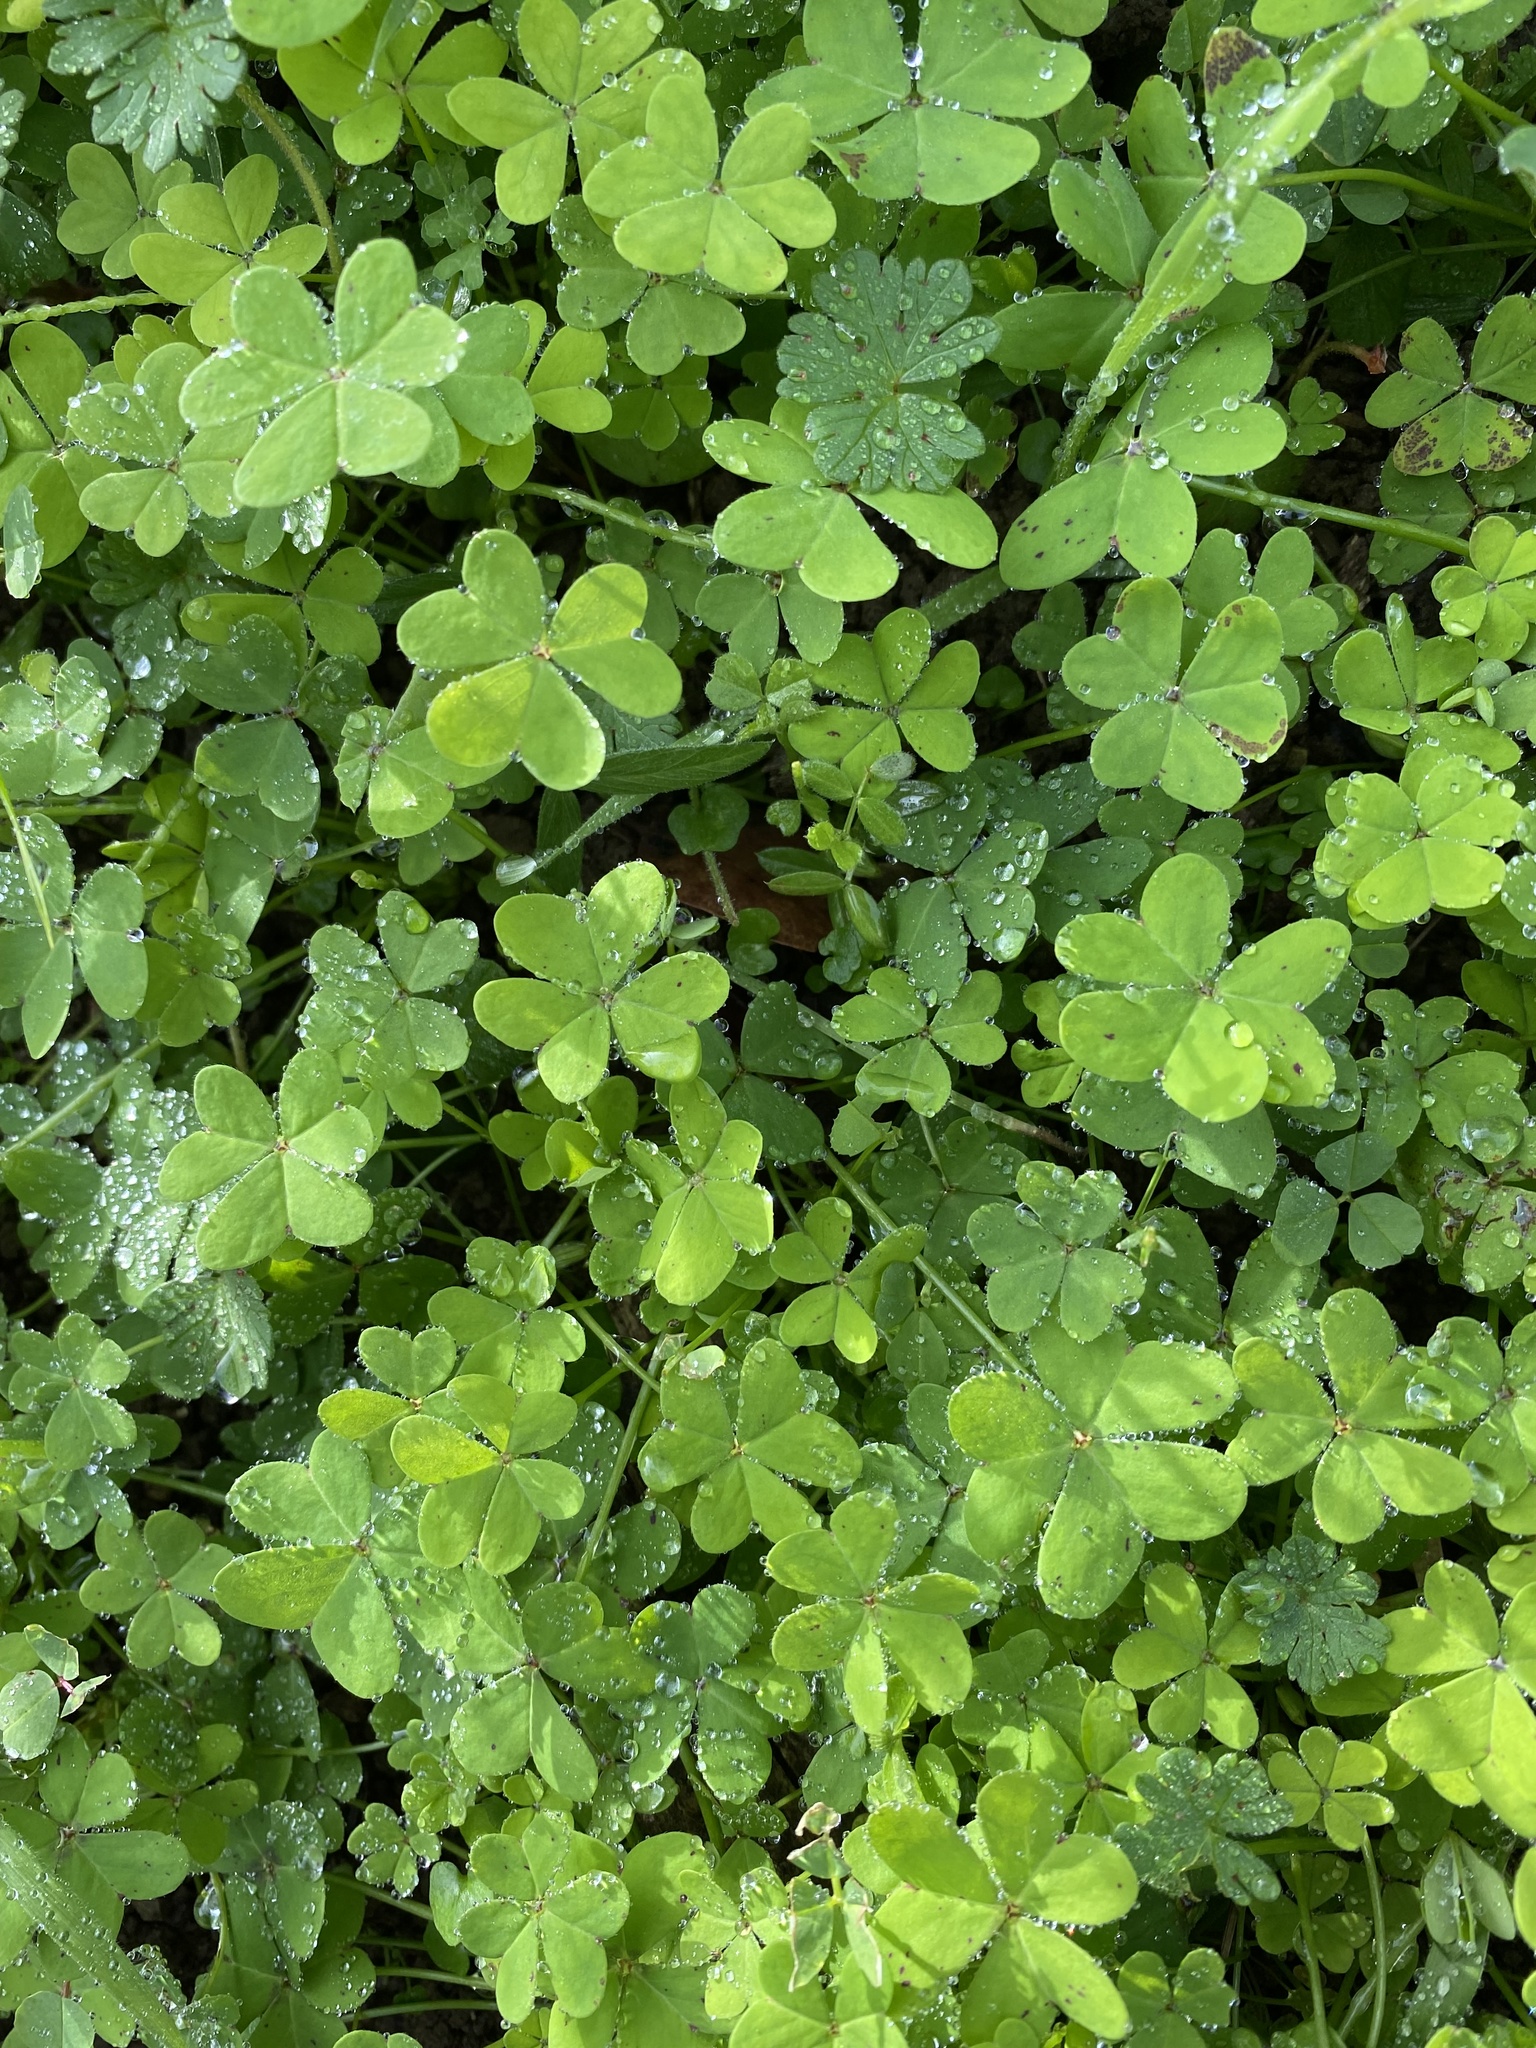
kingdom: Plantae
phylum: Tracheophyta
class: Magnoliopsida
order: Oxalidales
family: Oxalidaceae
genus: Oxalis
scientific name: Oxalis pes-caprae
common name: Bermuda-buttercup
